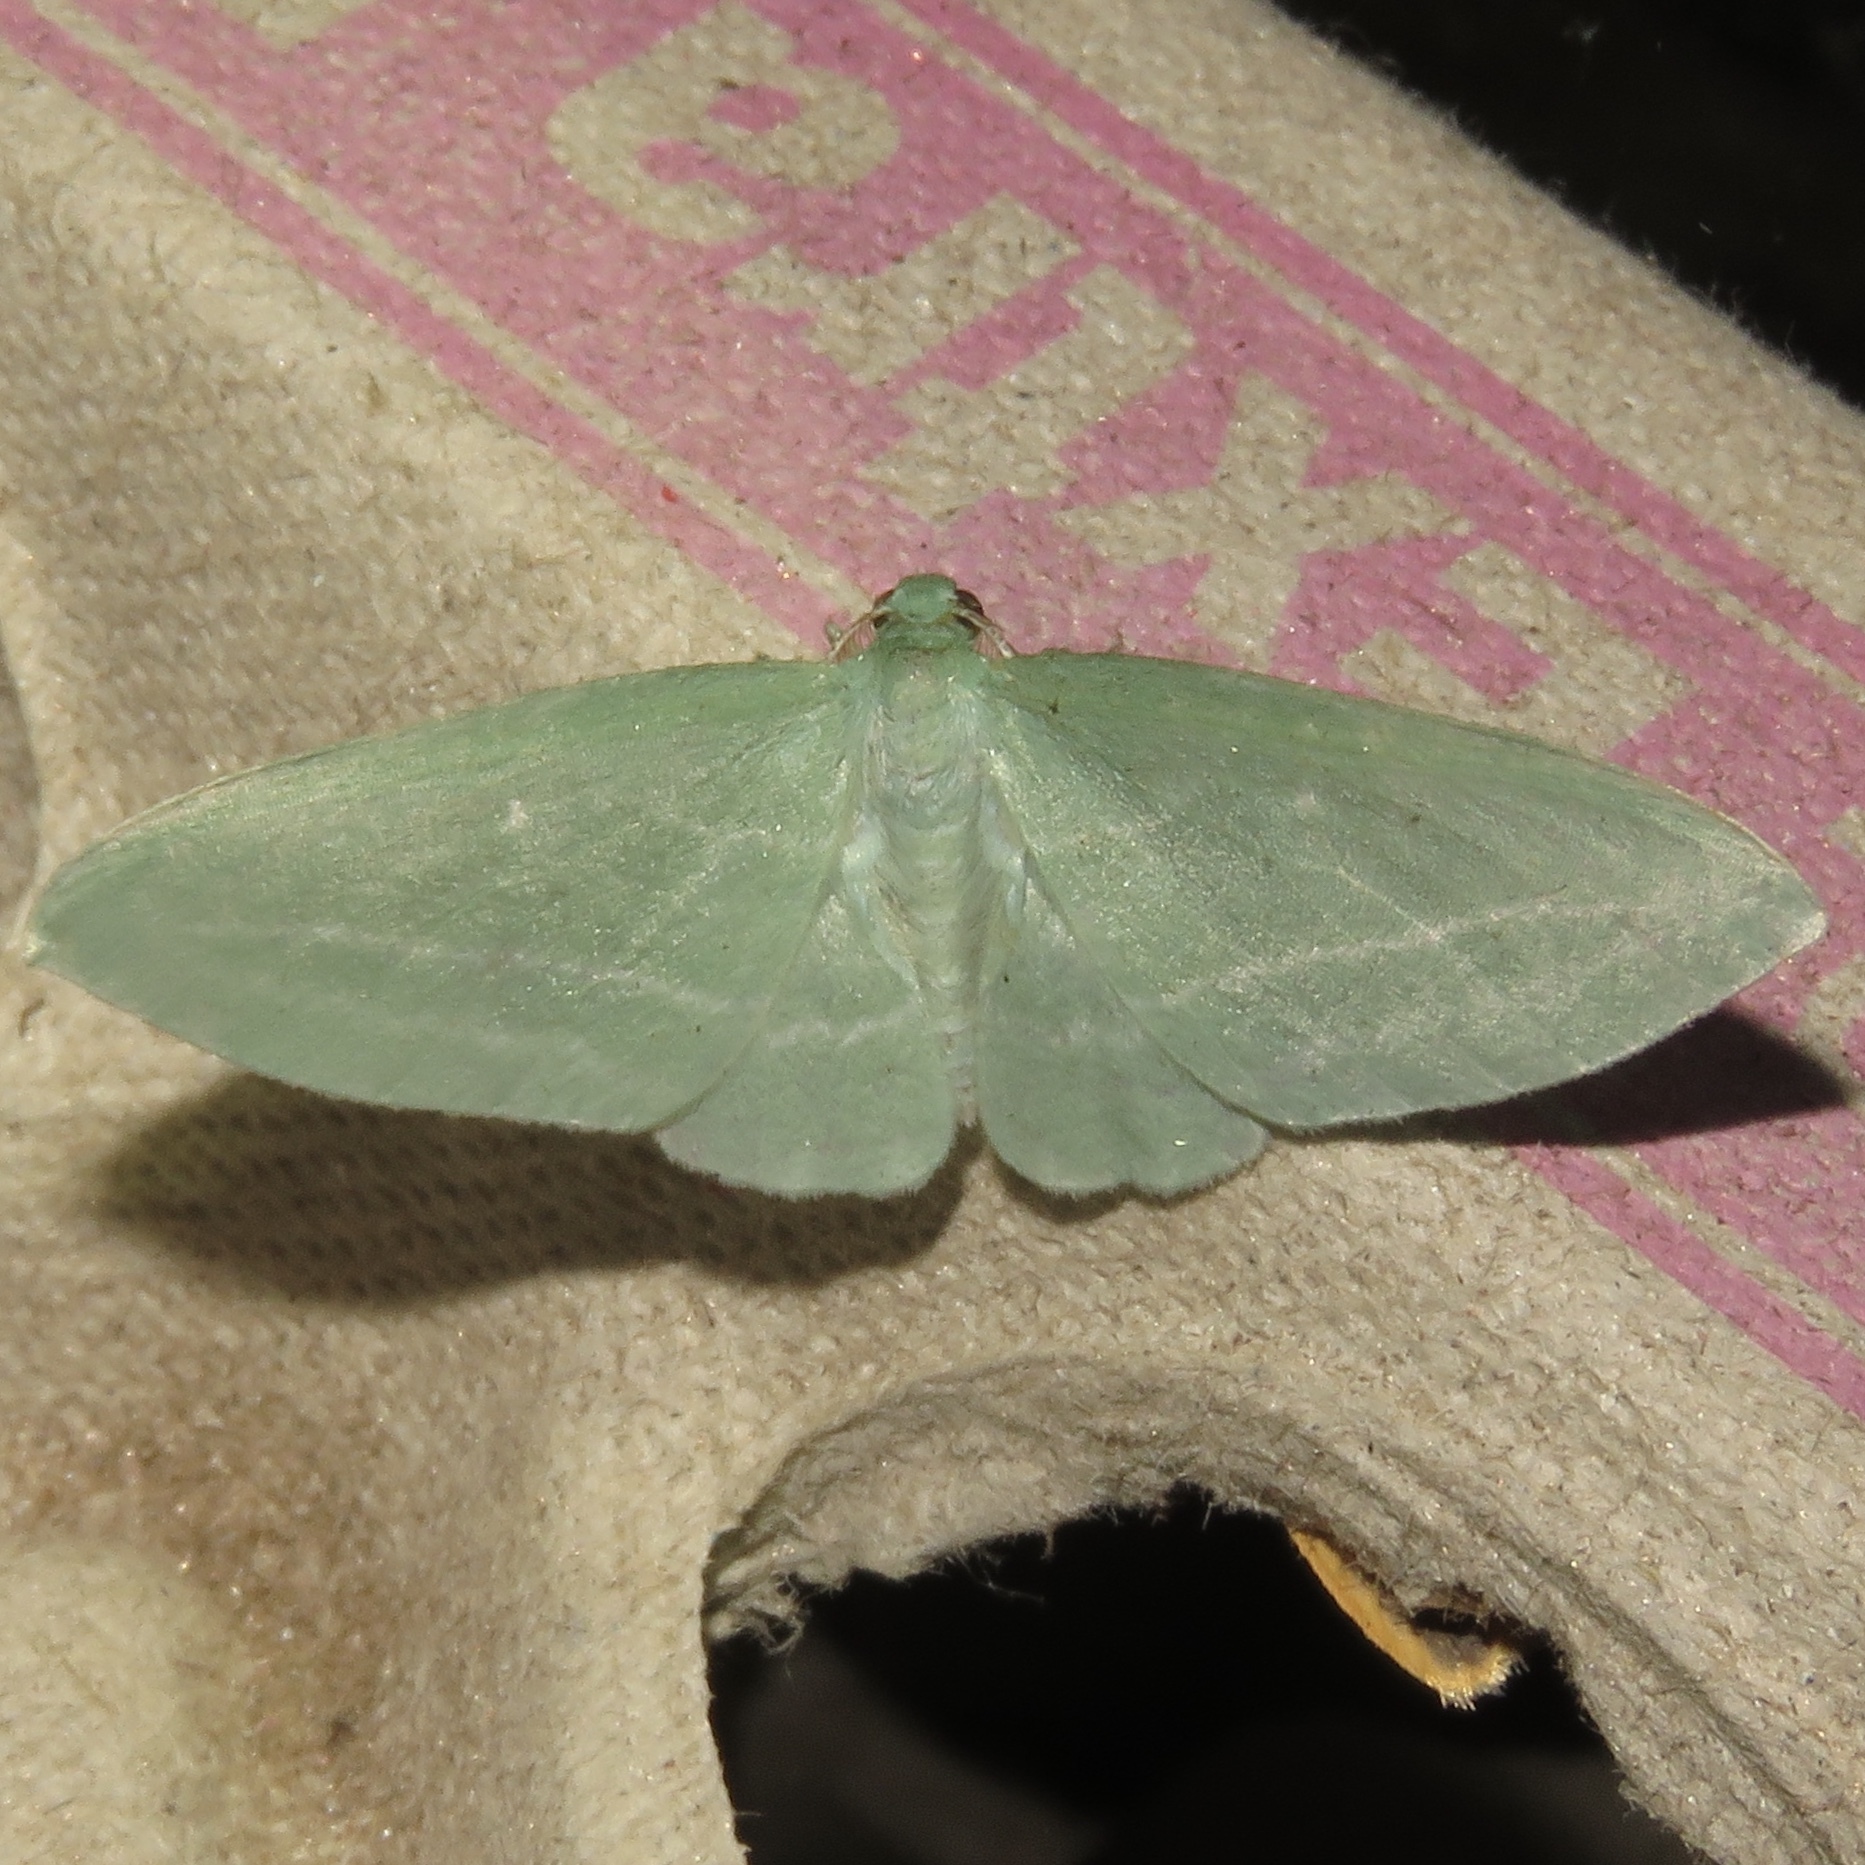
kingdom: Animalia
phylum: Arthropoda
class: Insecta
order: Lepidoptera
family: Geometridae
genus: Dyspteris
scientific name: Dyspteris abortivaria
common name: Bad-wing
